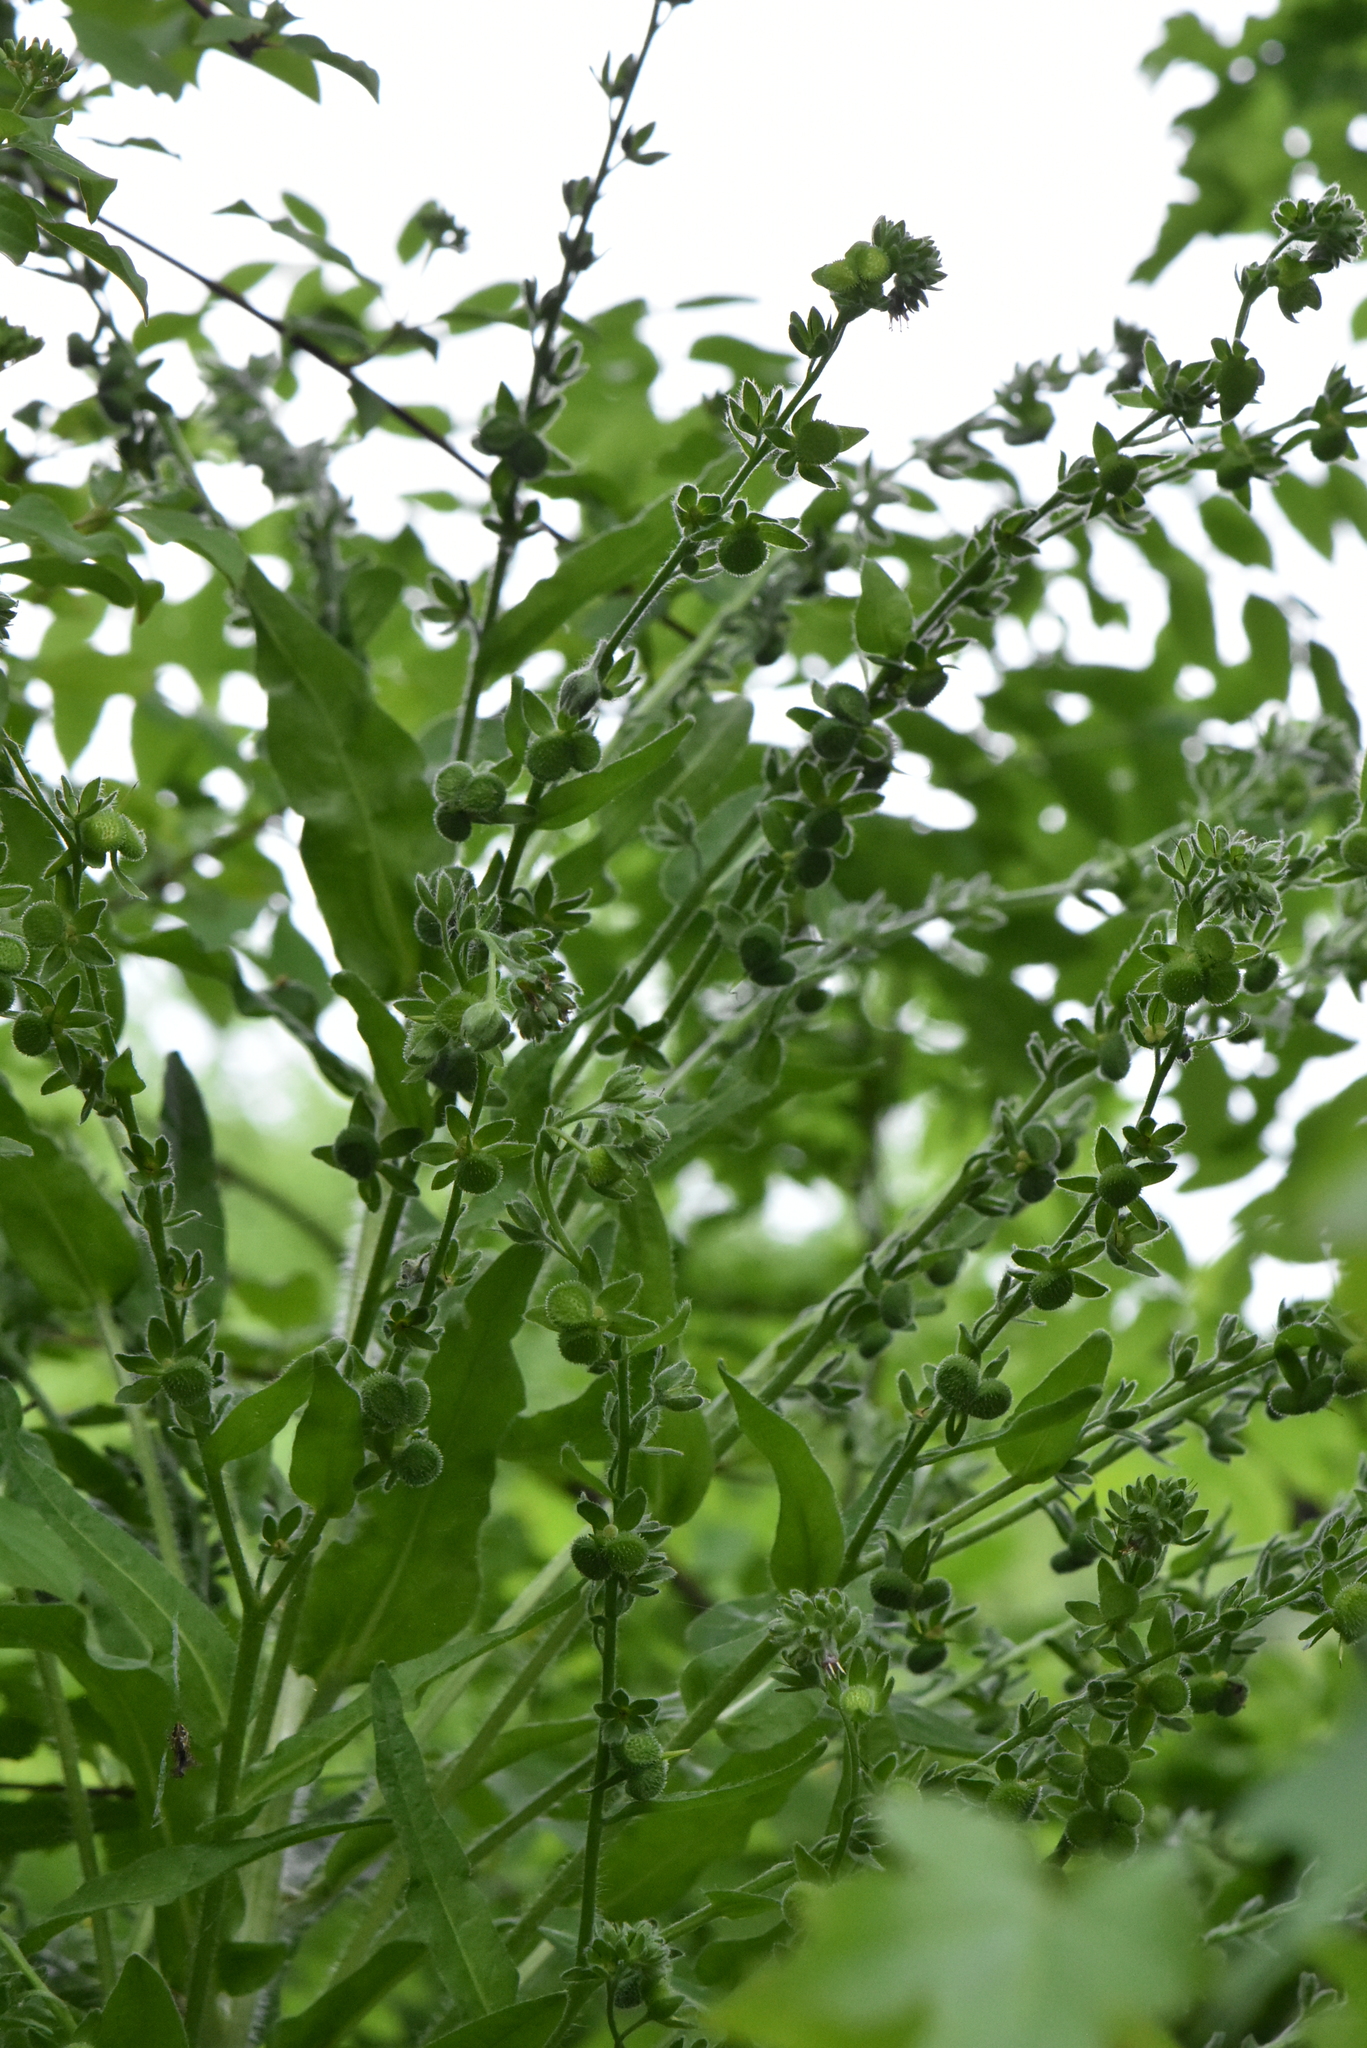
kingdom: Plantae
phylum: Tracheophyta
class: Magnoliopsida
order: Boraginales
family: Boraginaceae
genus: Cynoglossum
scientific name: Cynoglossum officinale
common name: Hound's-tongue
